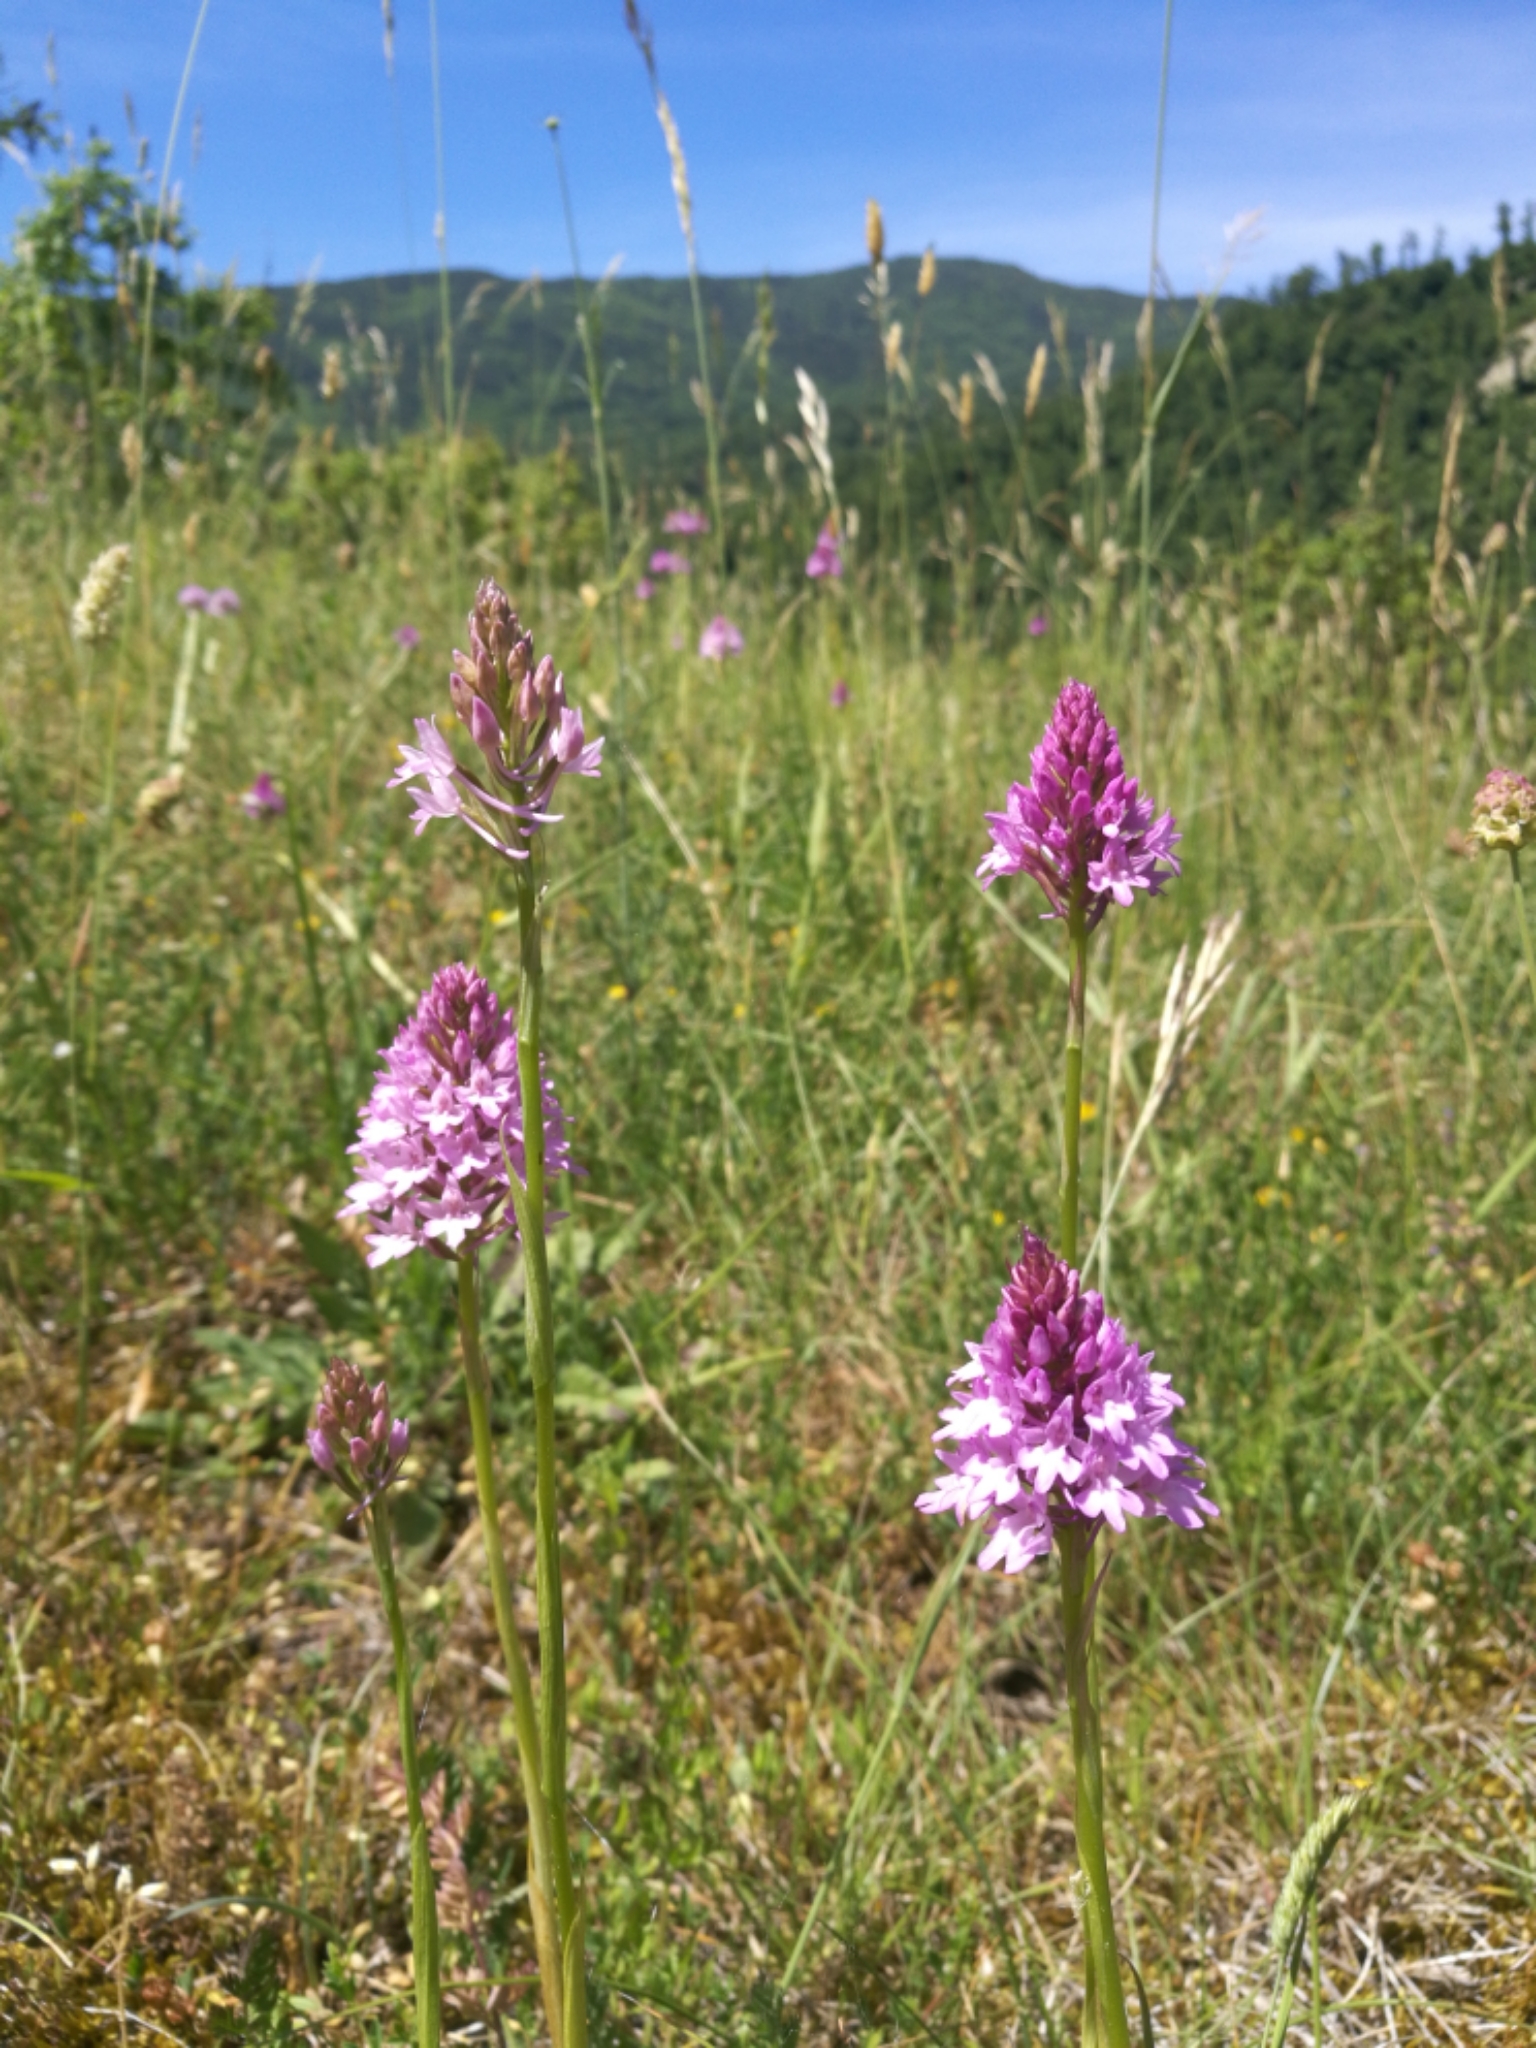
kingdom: Plantae
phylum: Tracheophyta
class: Liliopsida
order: Asparagales
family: Orchidaceae
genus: Anacamptis
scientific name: Anacamptis pyramidalis
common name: Pyramidal orchid
